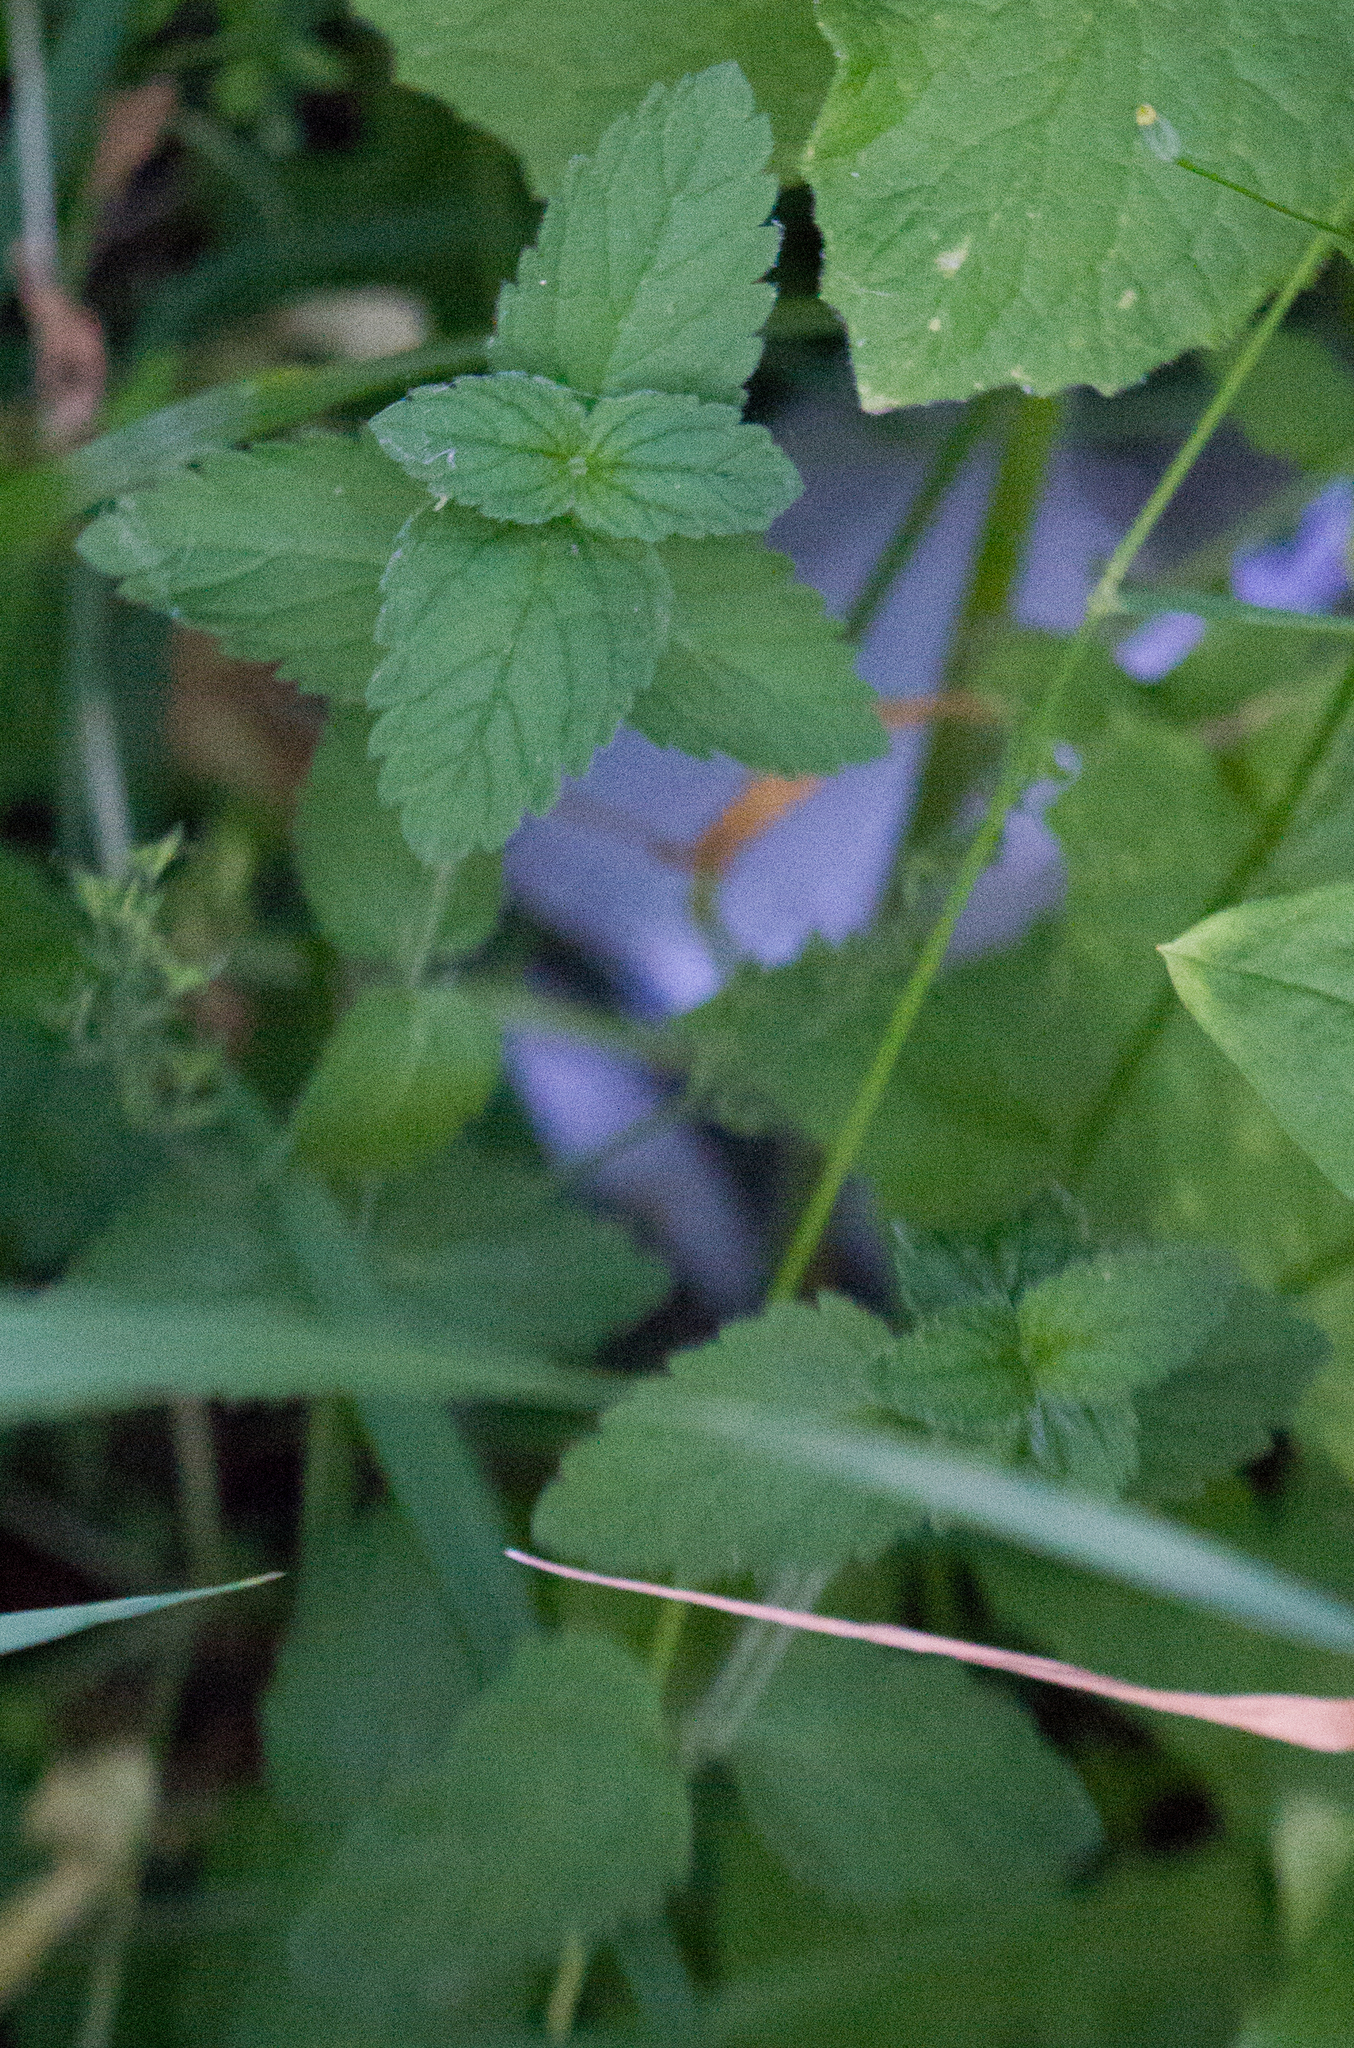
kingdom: Plantae
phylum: Tracheophyta
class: Magnoliopsida
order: Lamiales
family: Plantaginaceae
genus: Veronica
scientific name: Veronica chamaedrys
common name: Germander speedwell
